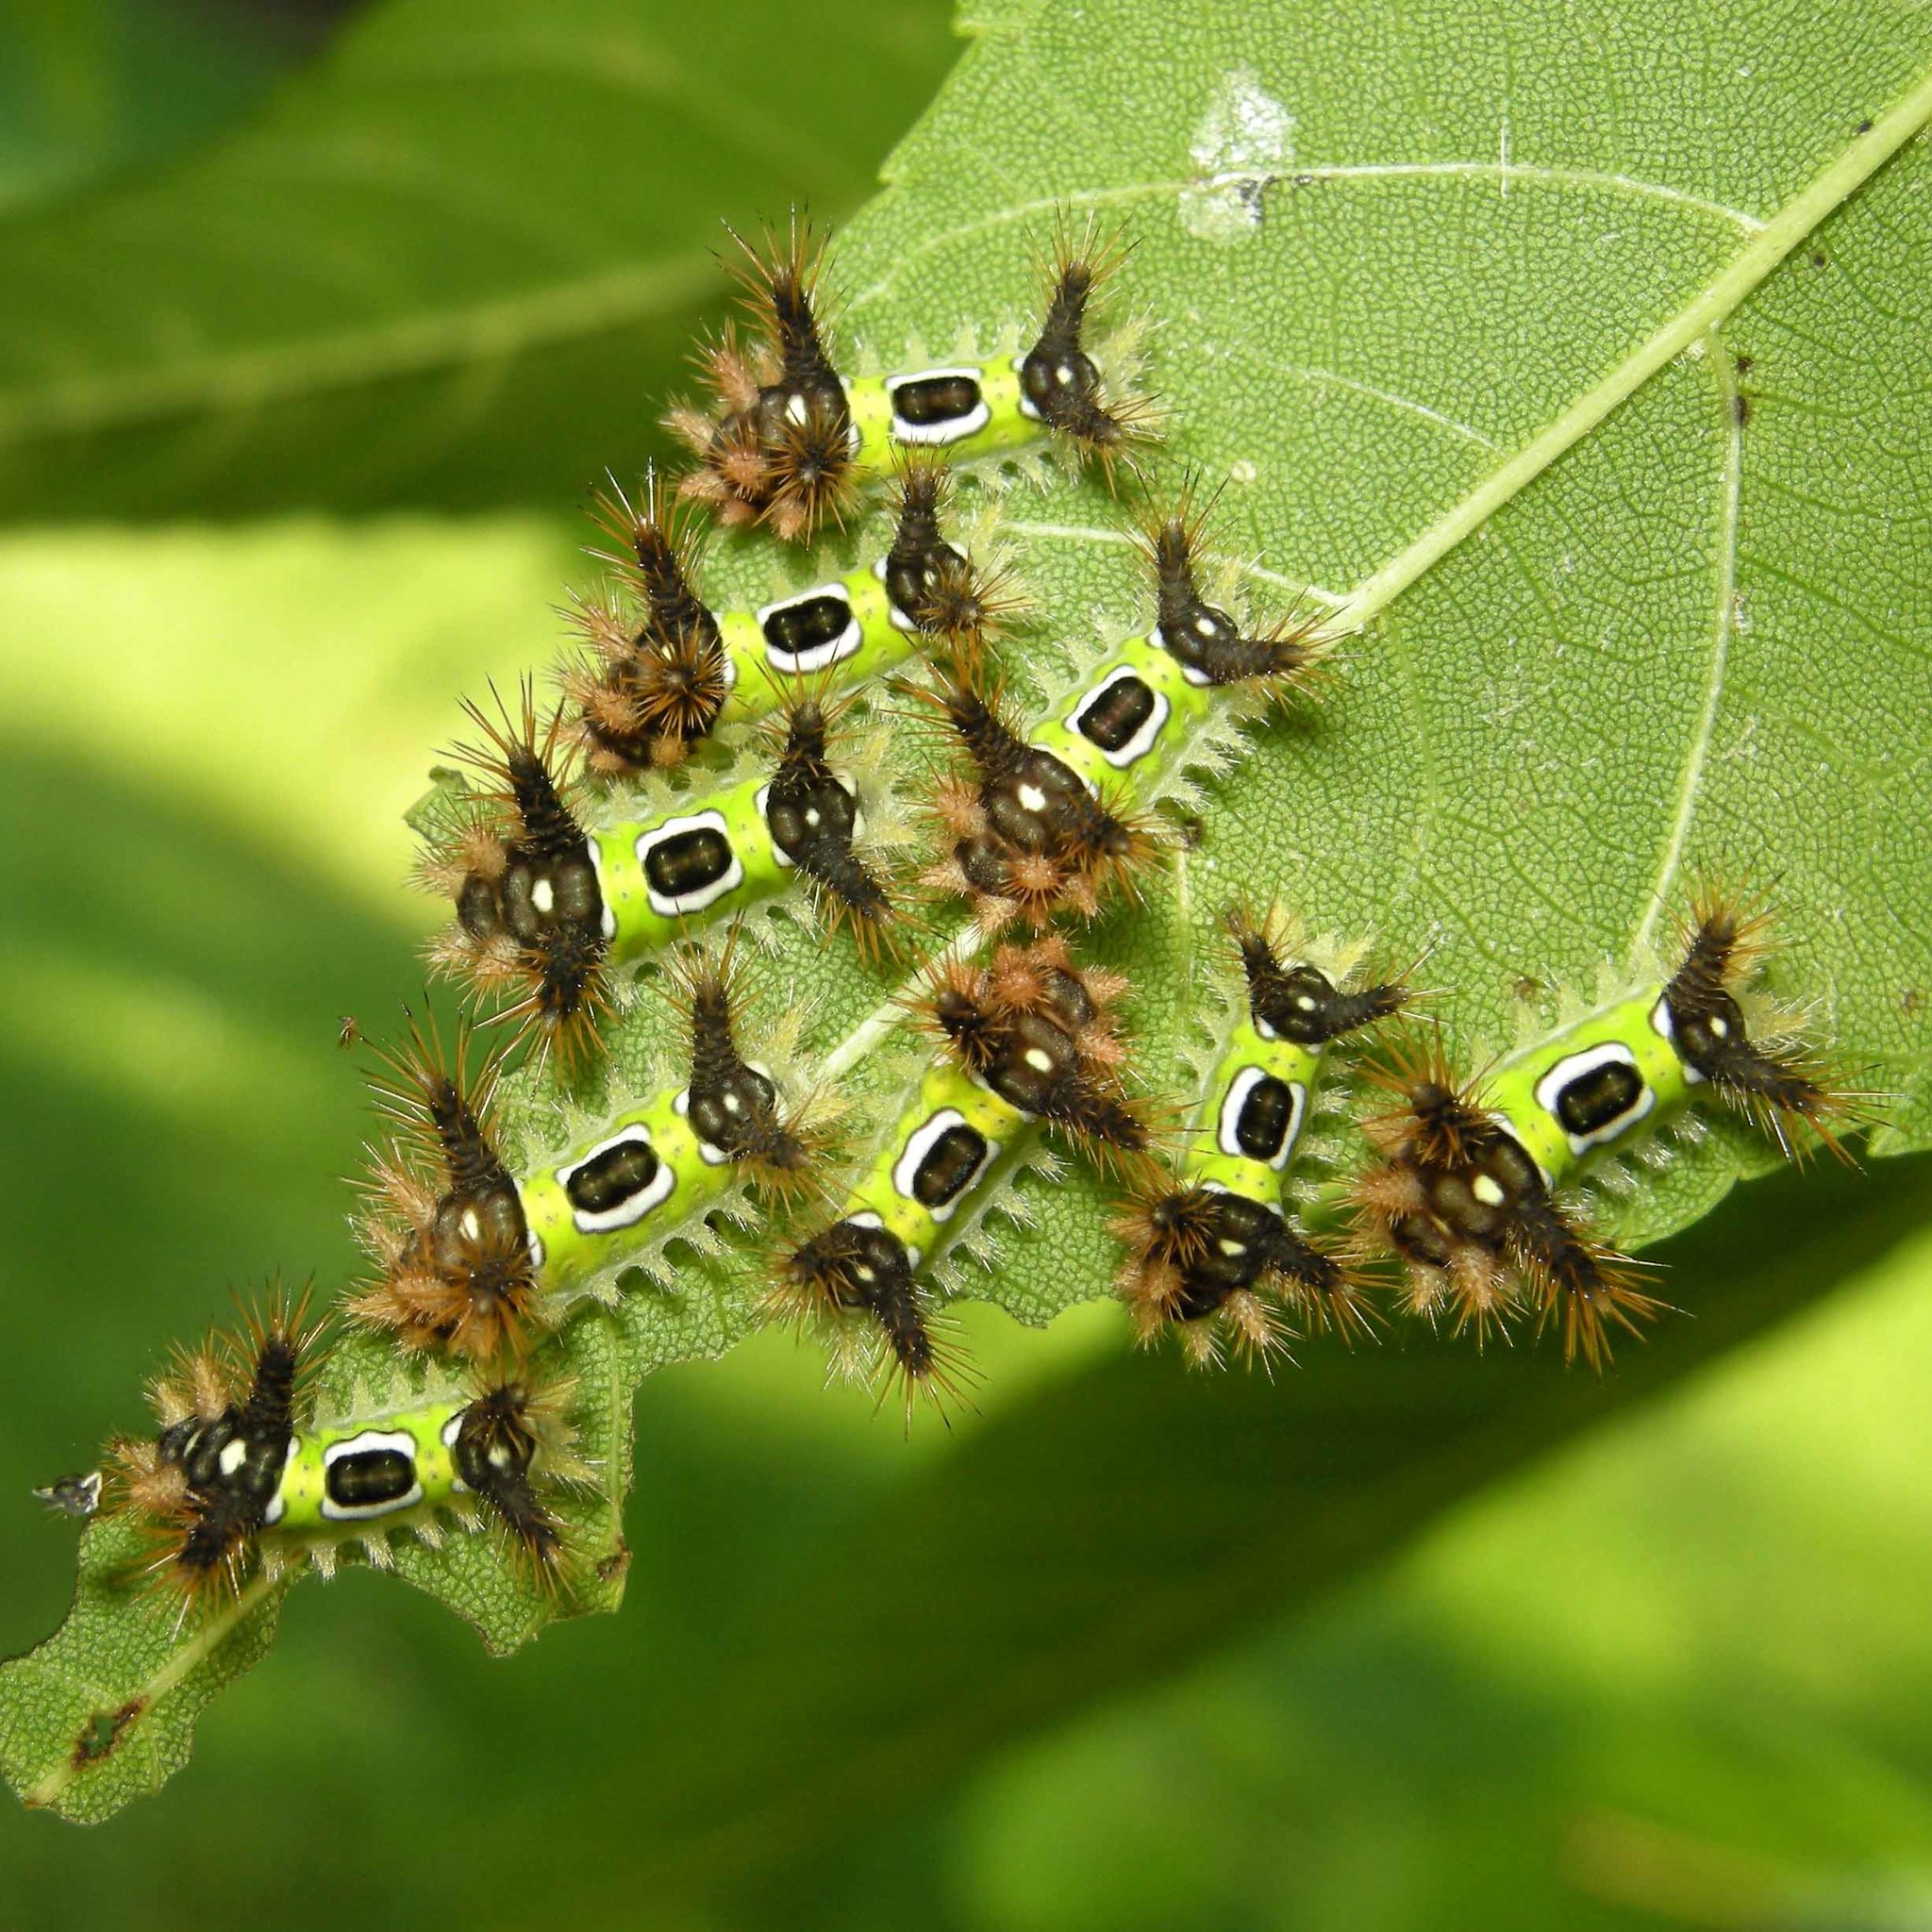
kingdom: Animalia
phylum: Arthropoda
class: Insecta
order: Lepidoptera
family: Limacodidae
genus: Acharia
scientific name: Acharia stimulea
